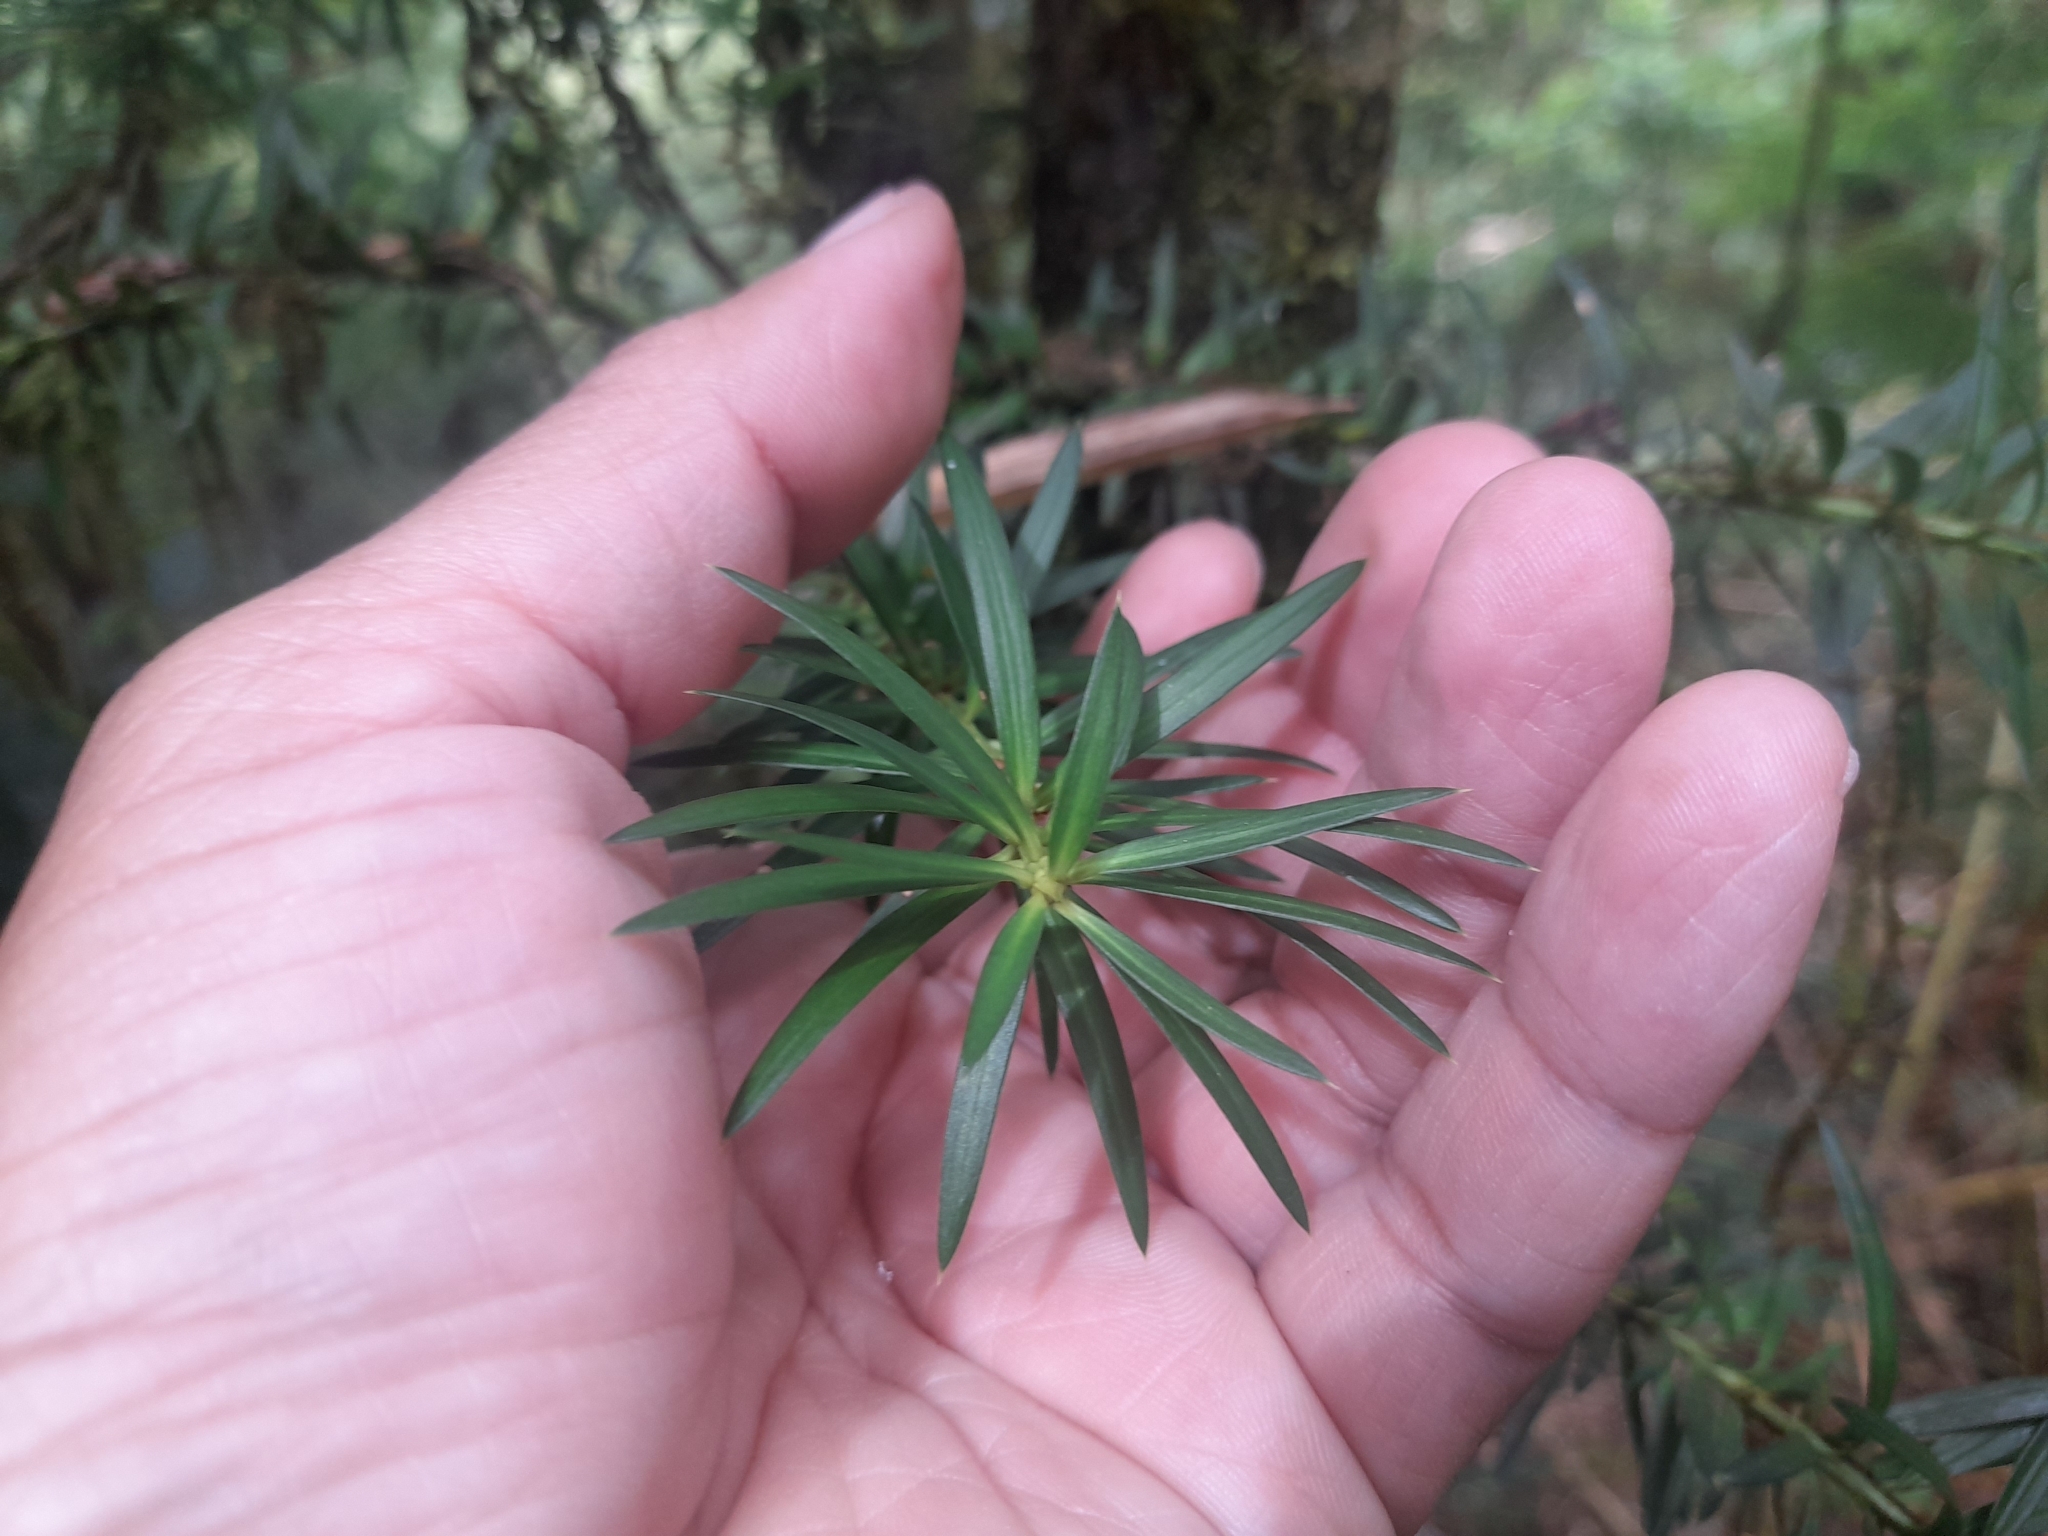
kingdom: Plantae
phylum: Tracheophyta
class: Pinopsida
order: Pinales
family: Podocarpaceae
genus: Podocarpus
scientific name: Podocarpus nubigenus
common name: Cloud podocarp
